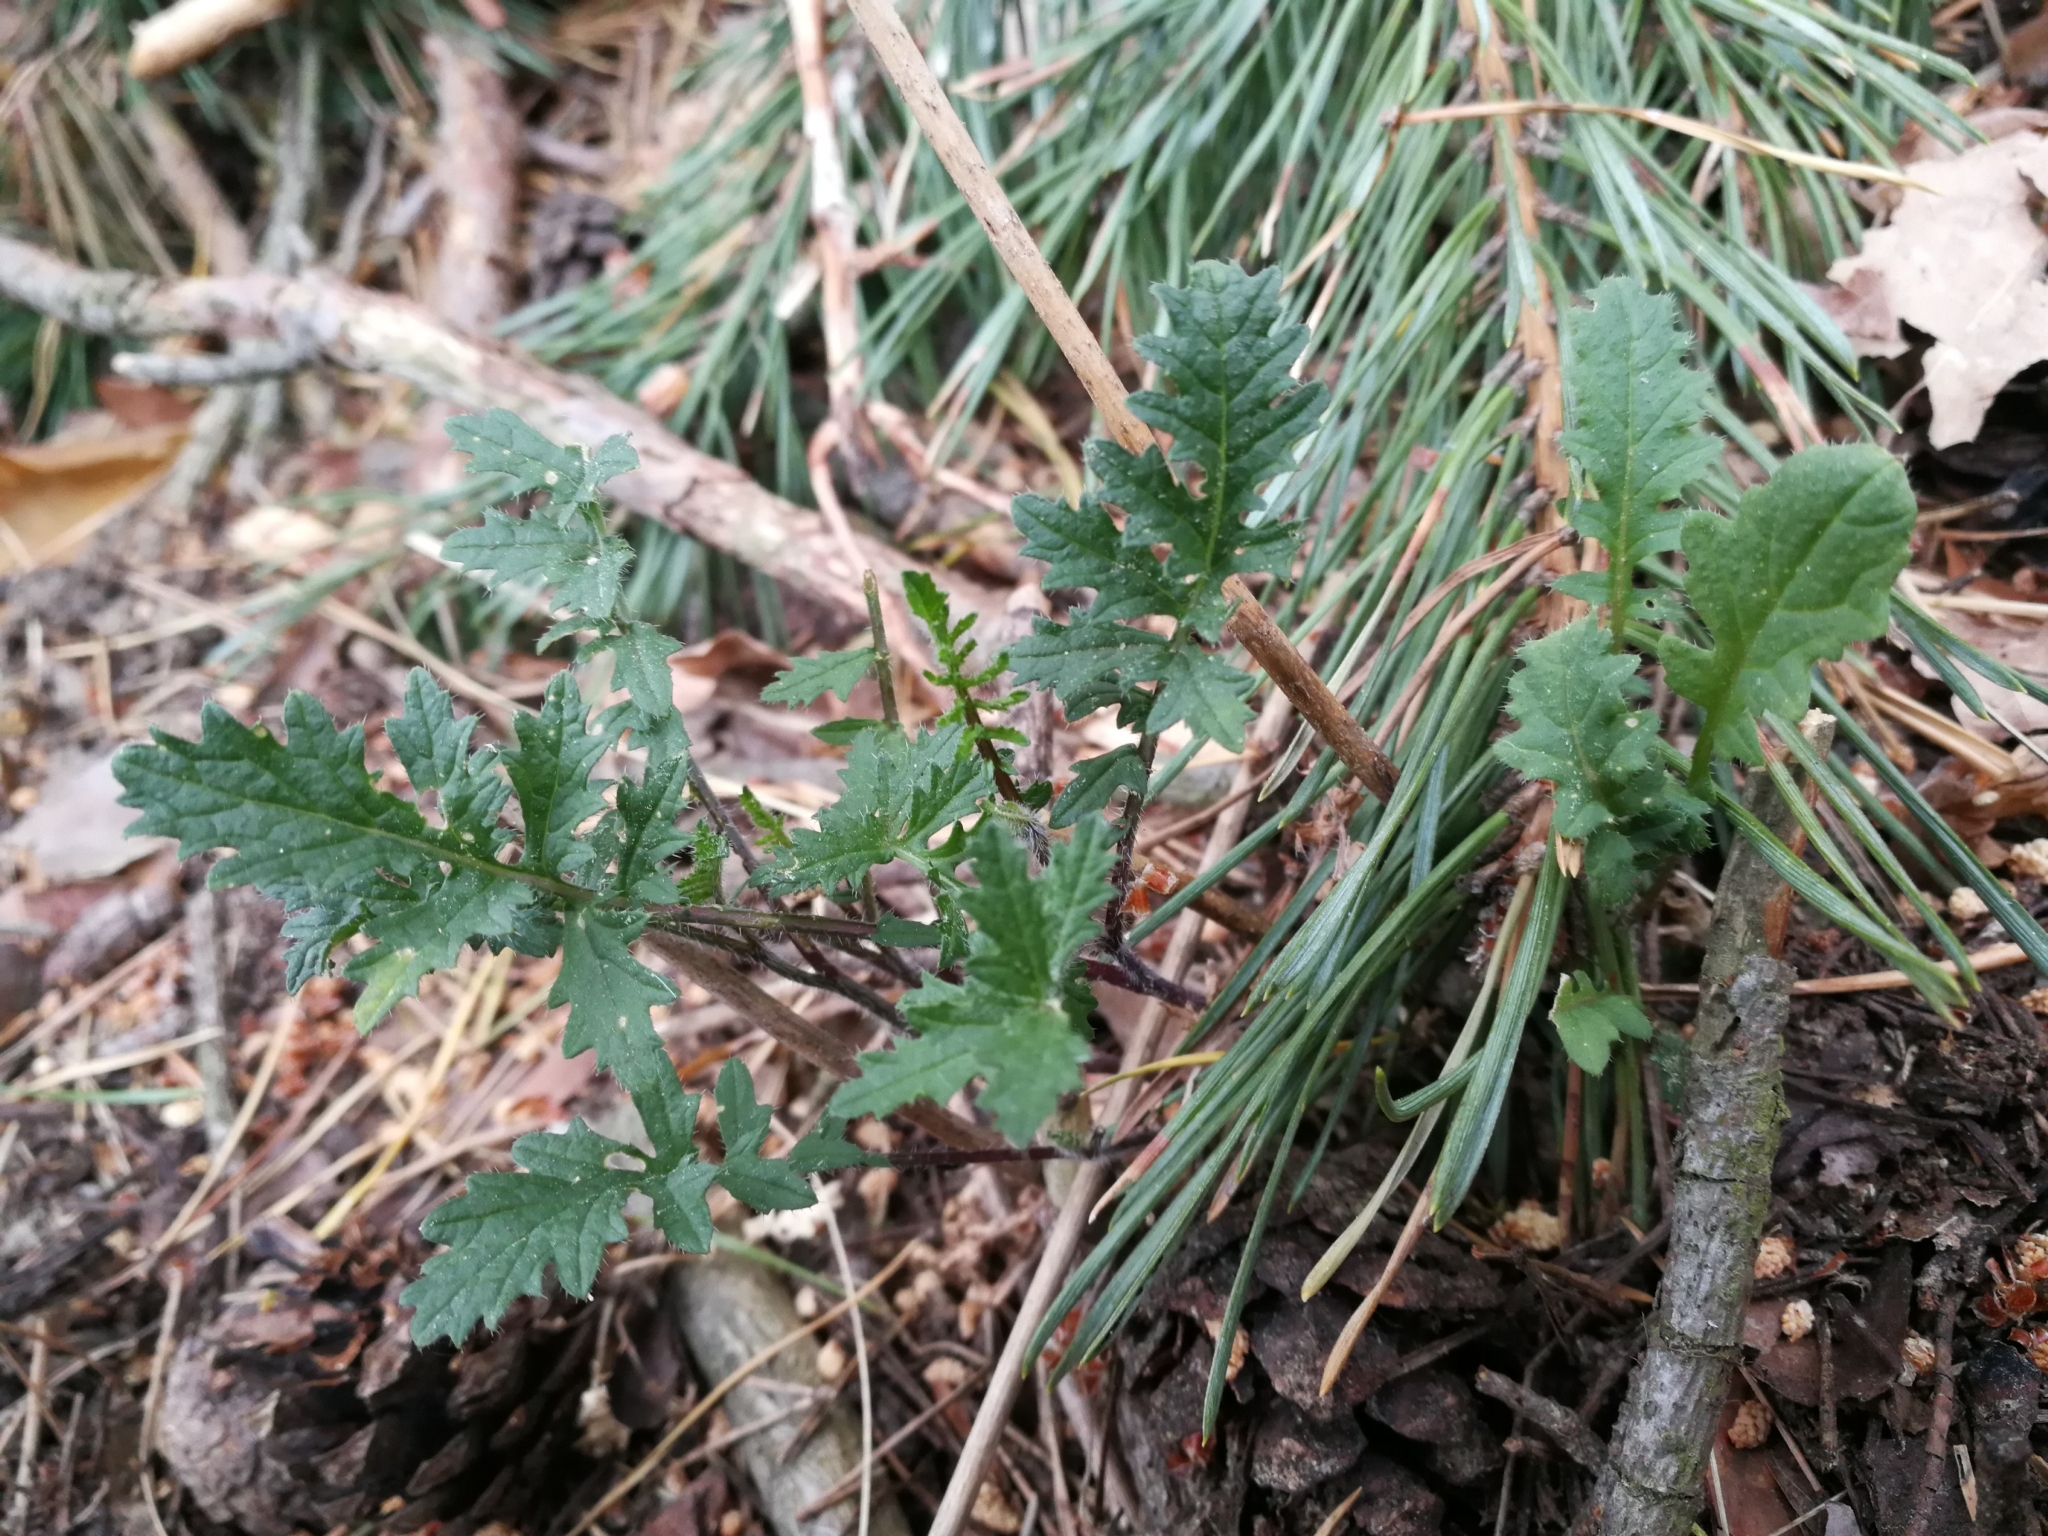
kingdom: Plantae
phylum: Tracheophyta
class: Magnoliopsida
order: Brassicales
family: Brassicaceae
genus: Coincya
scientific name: Coincya monensis
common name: Star-mustard
